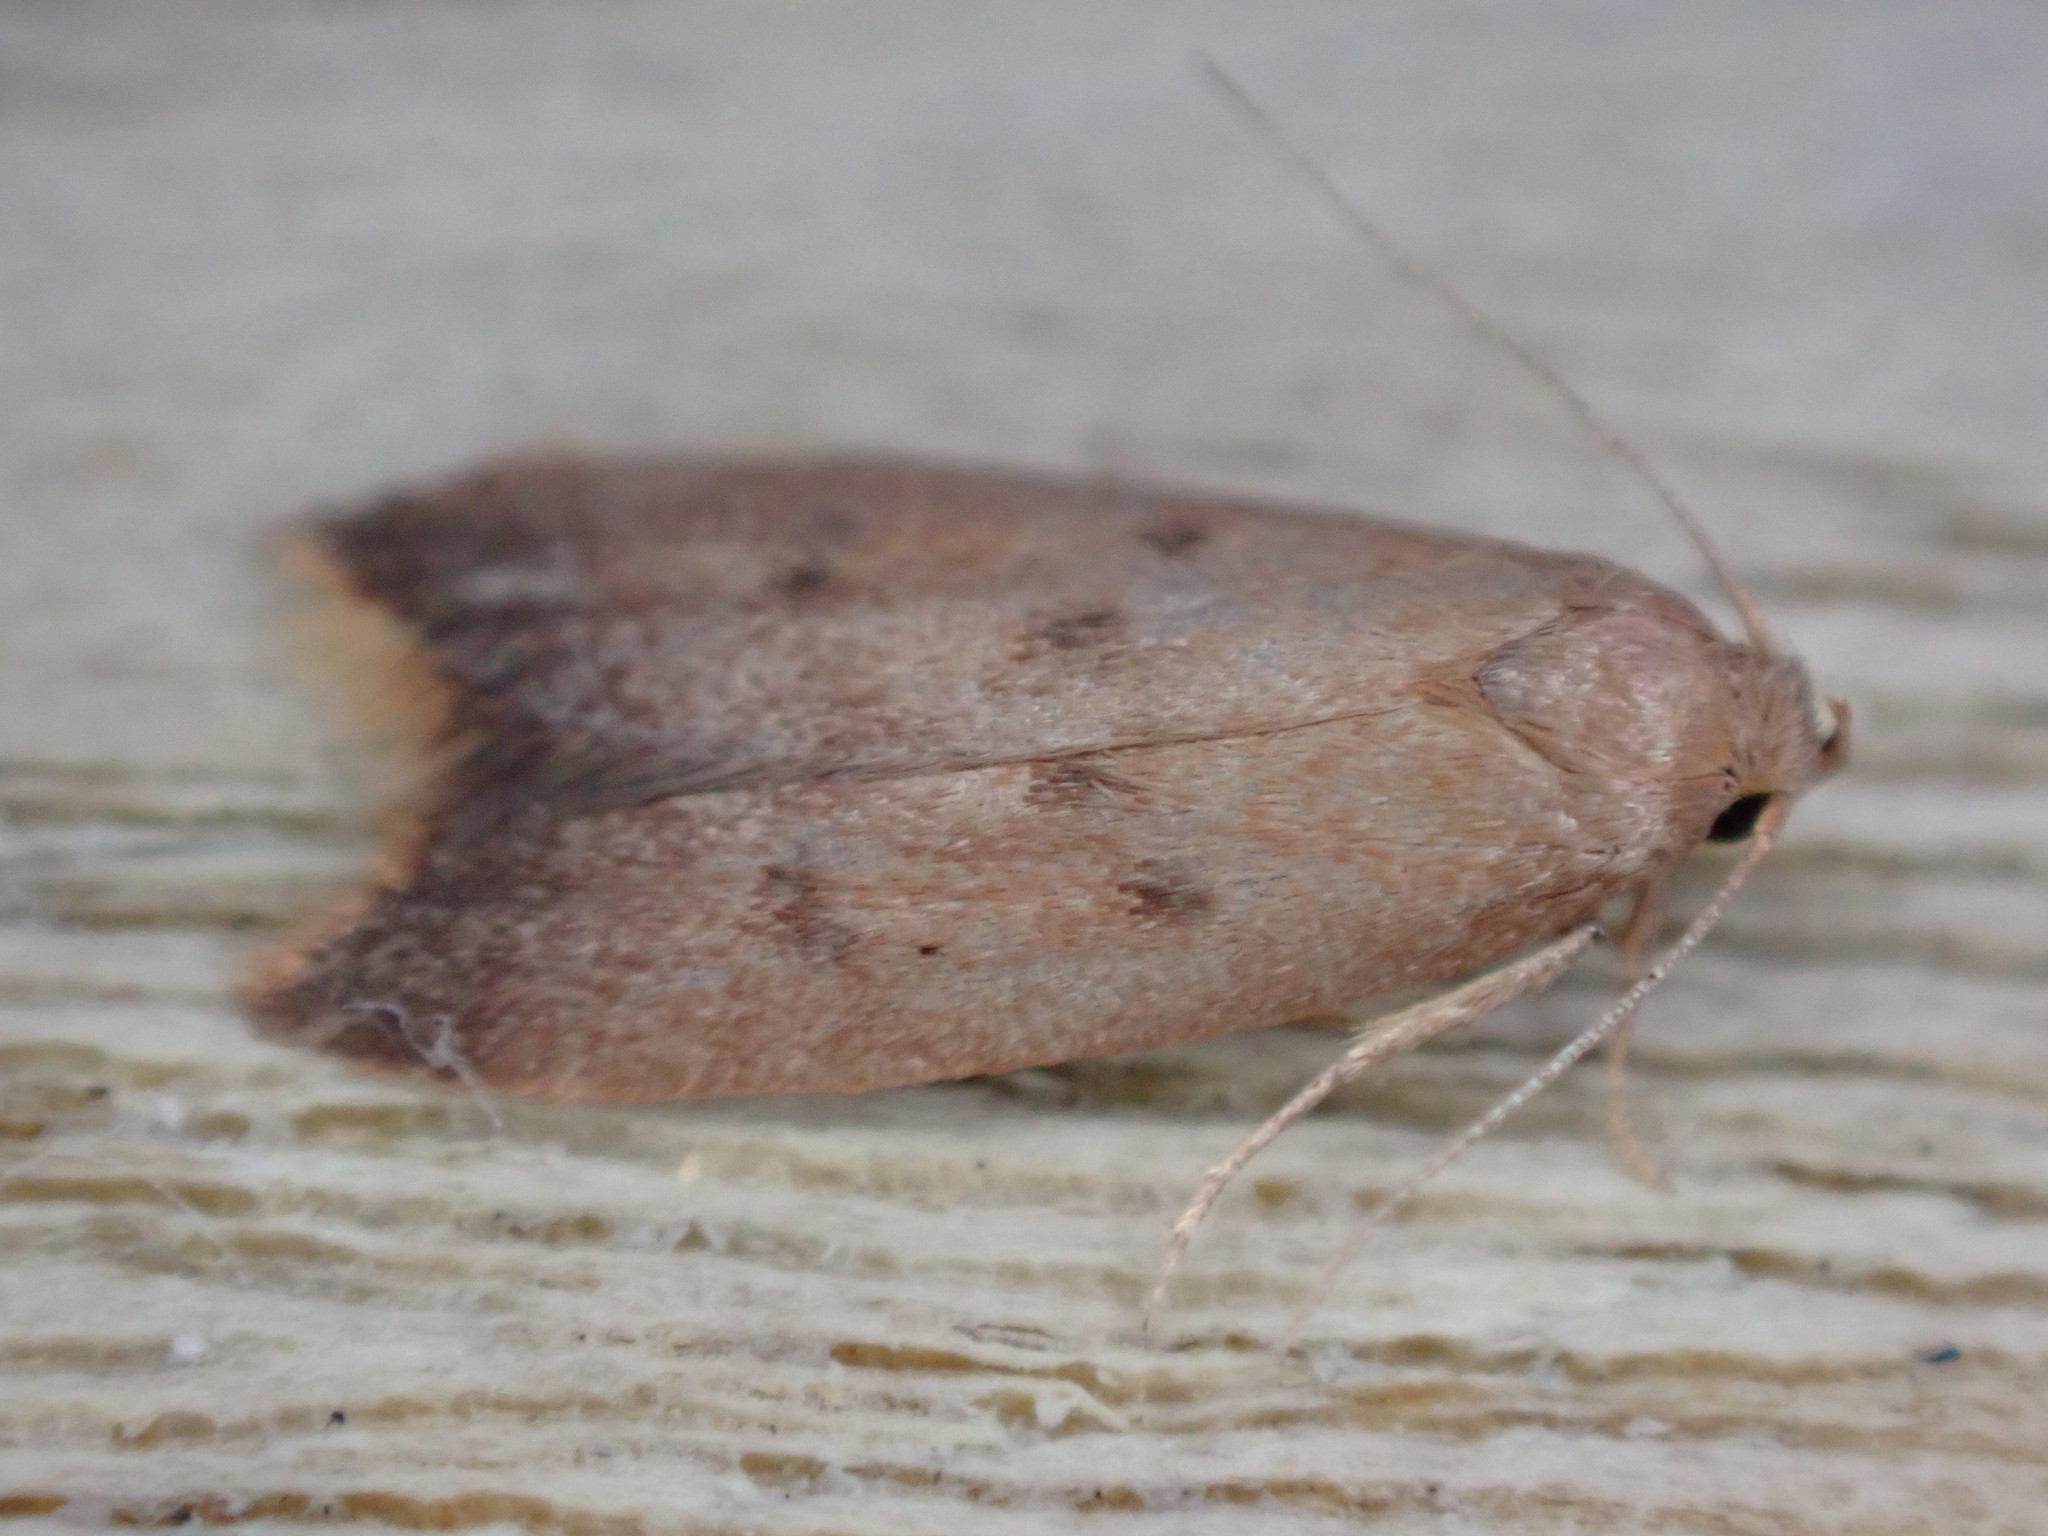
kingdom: Animalia
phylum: Arthropoda
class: Insecta
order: Lepidoptera
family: Oecophoridae
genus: Tachystola
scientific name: Tachystola acroxantha
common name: Ruddy streak
